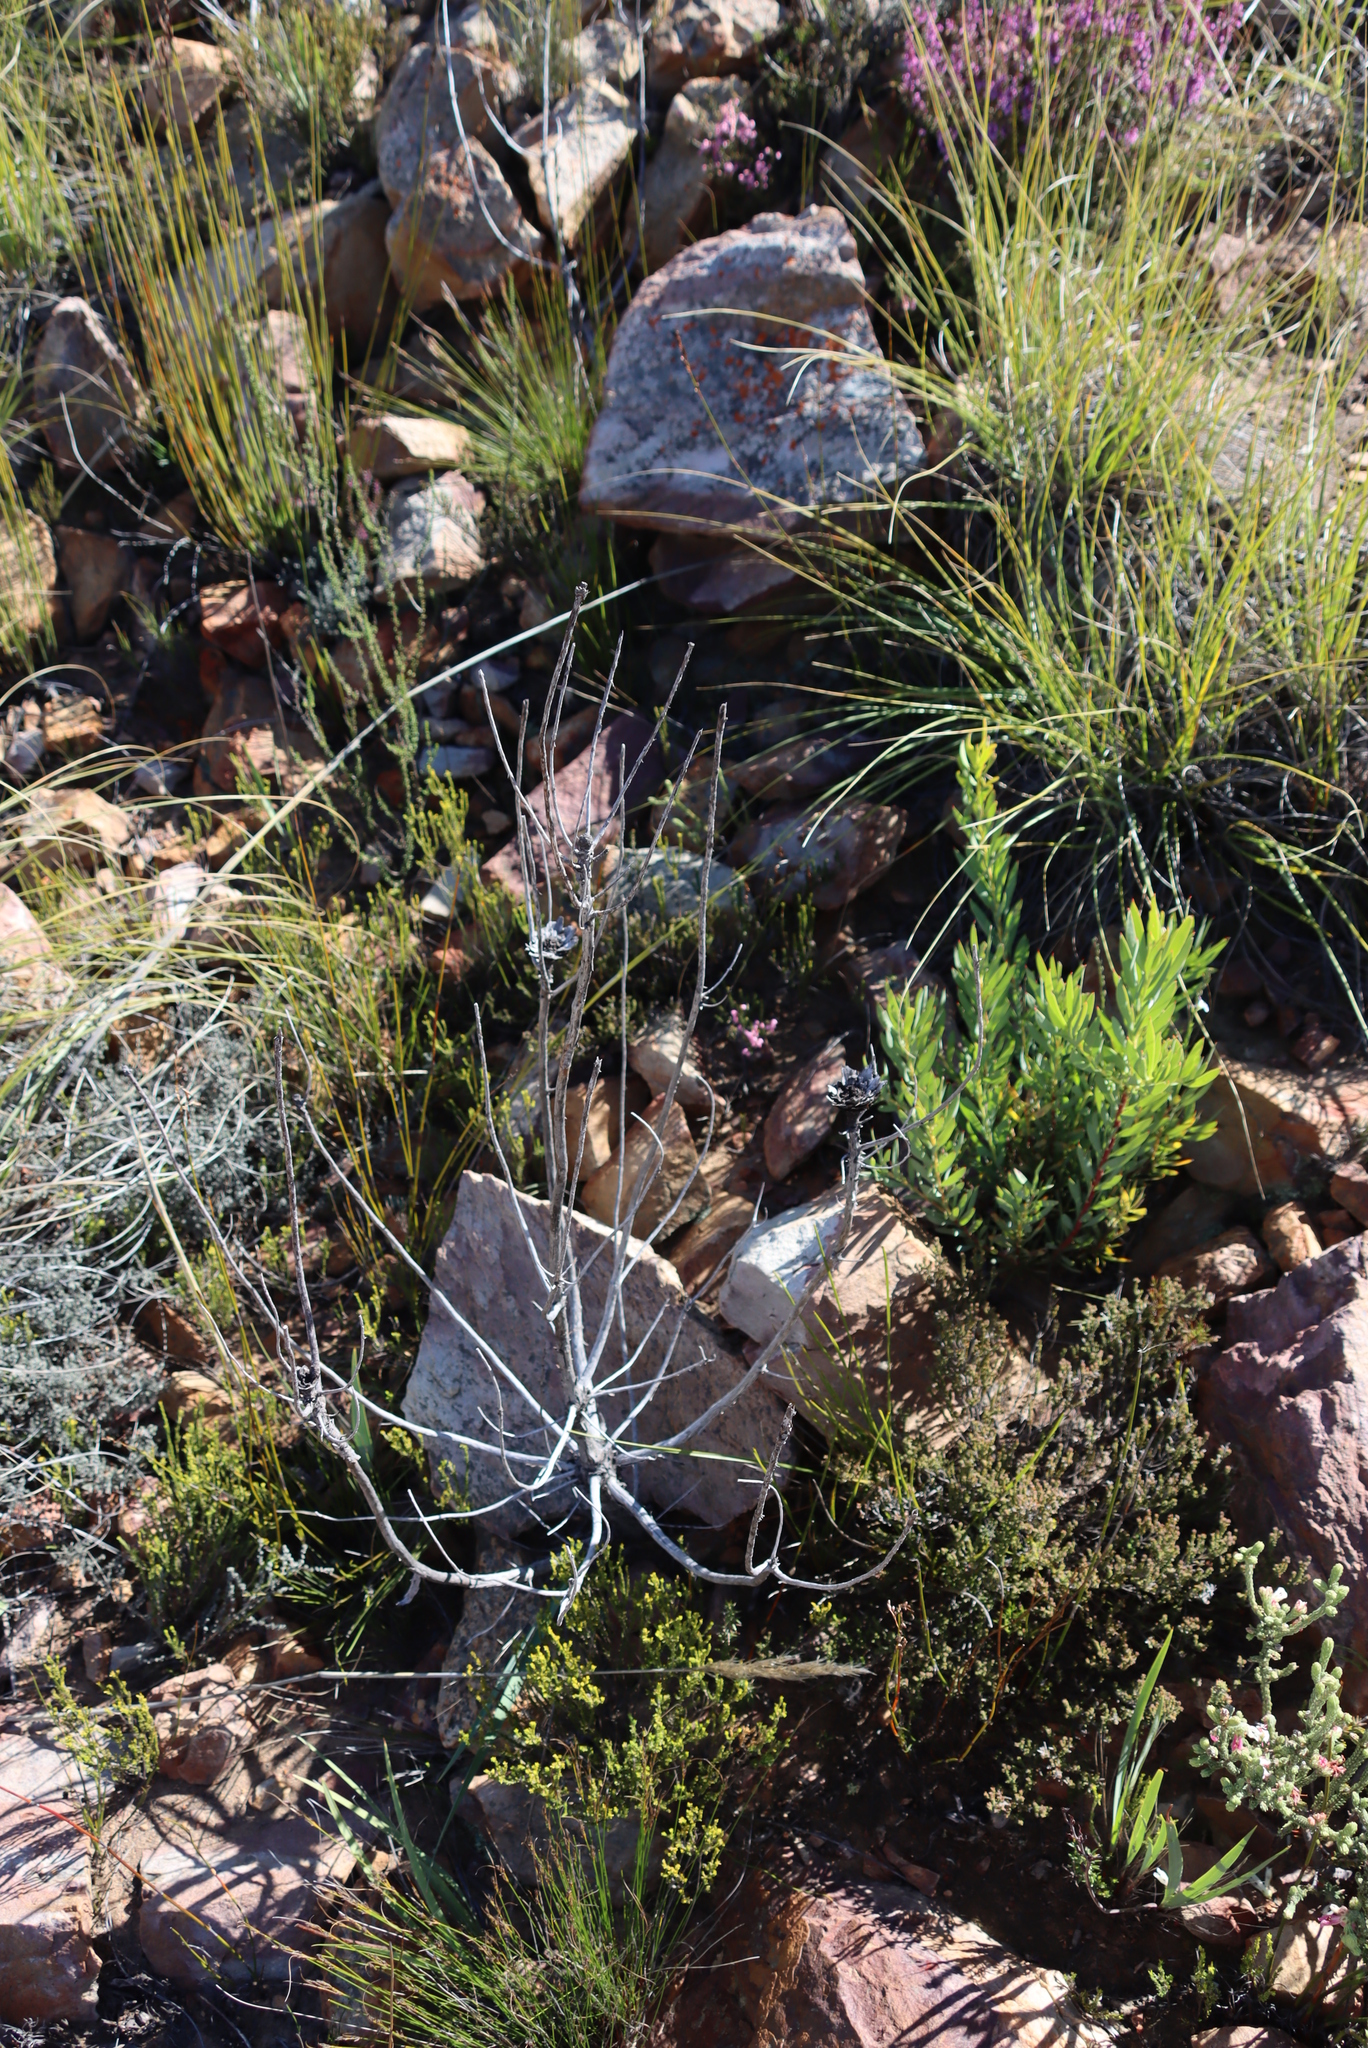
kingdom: Plantae
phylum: Tracheophyta
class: Liliopsida
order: Poales
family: Poaceae
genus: Capeochloa
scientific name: Capeochloa arundinacea
